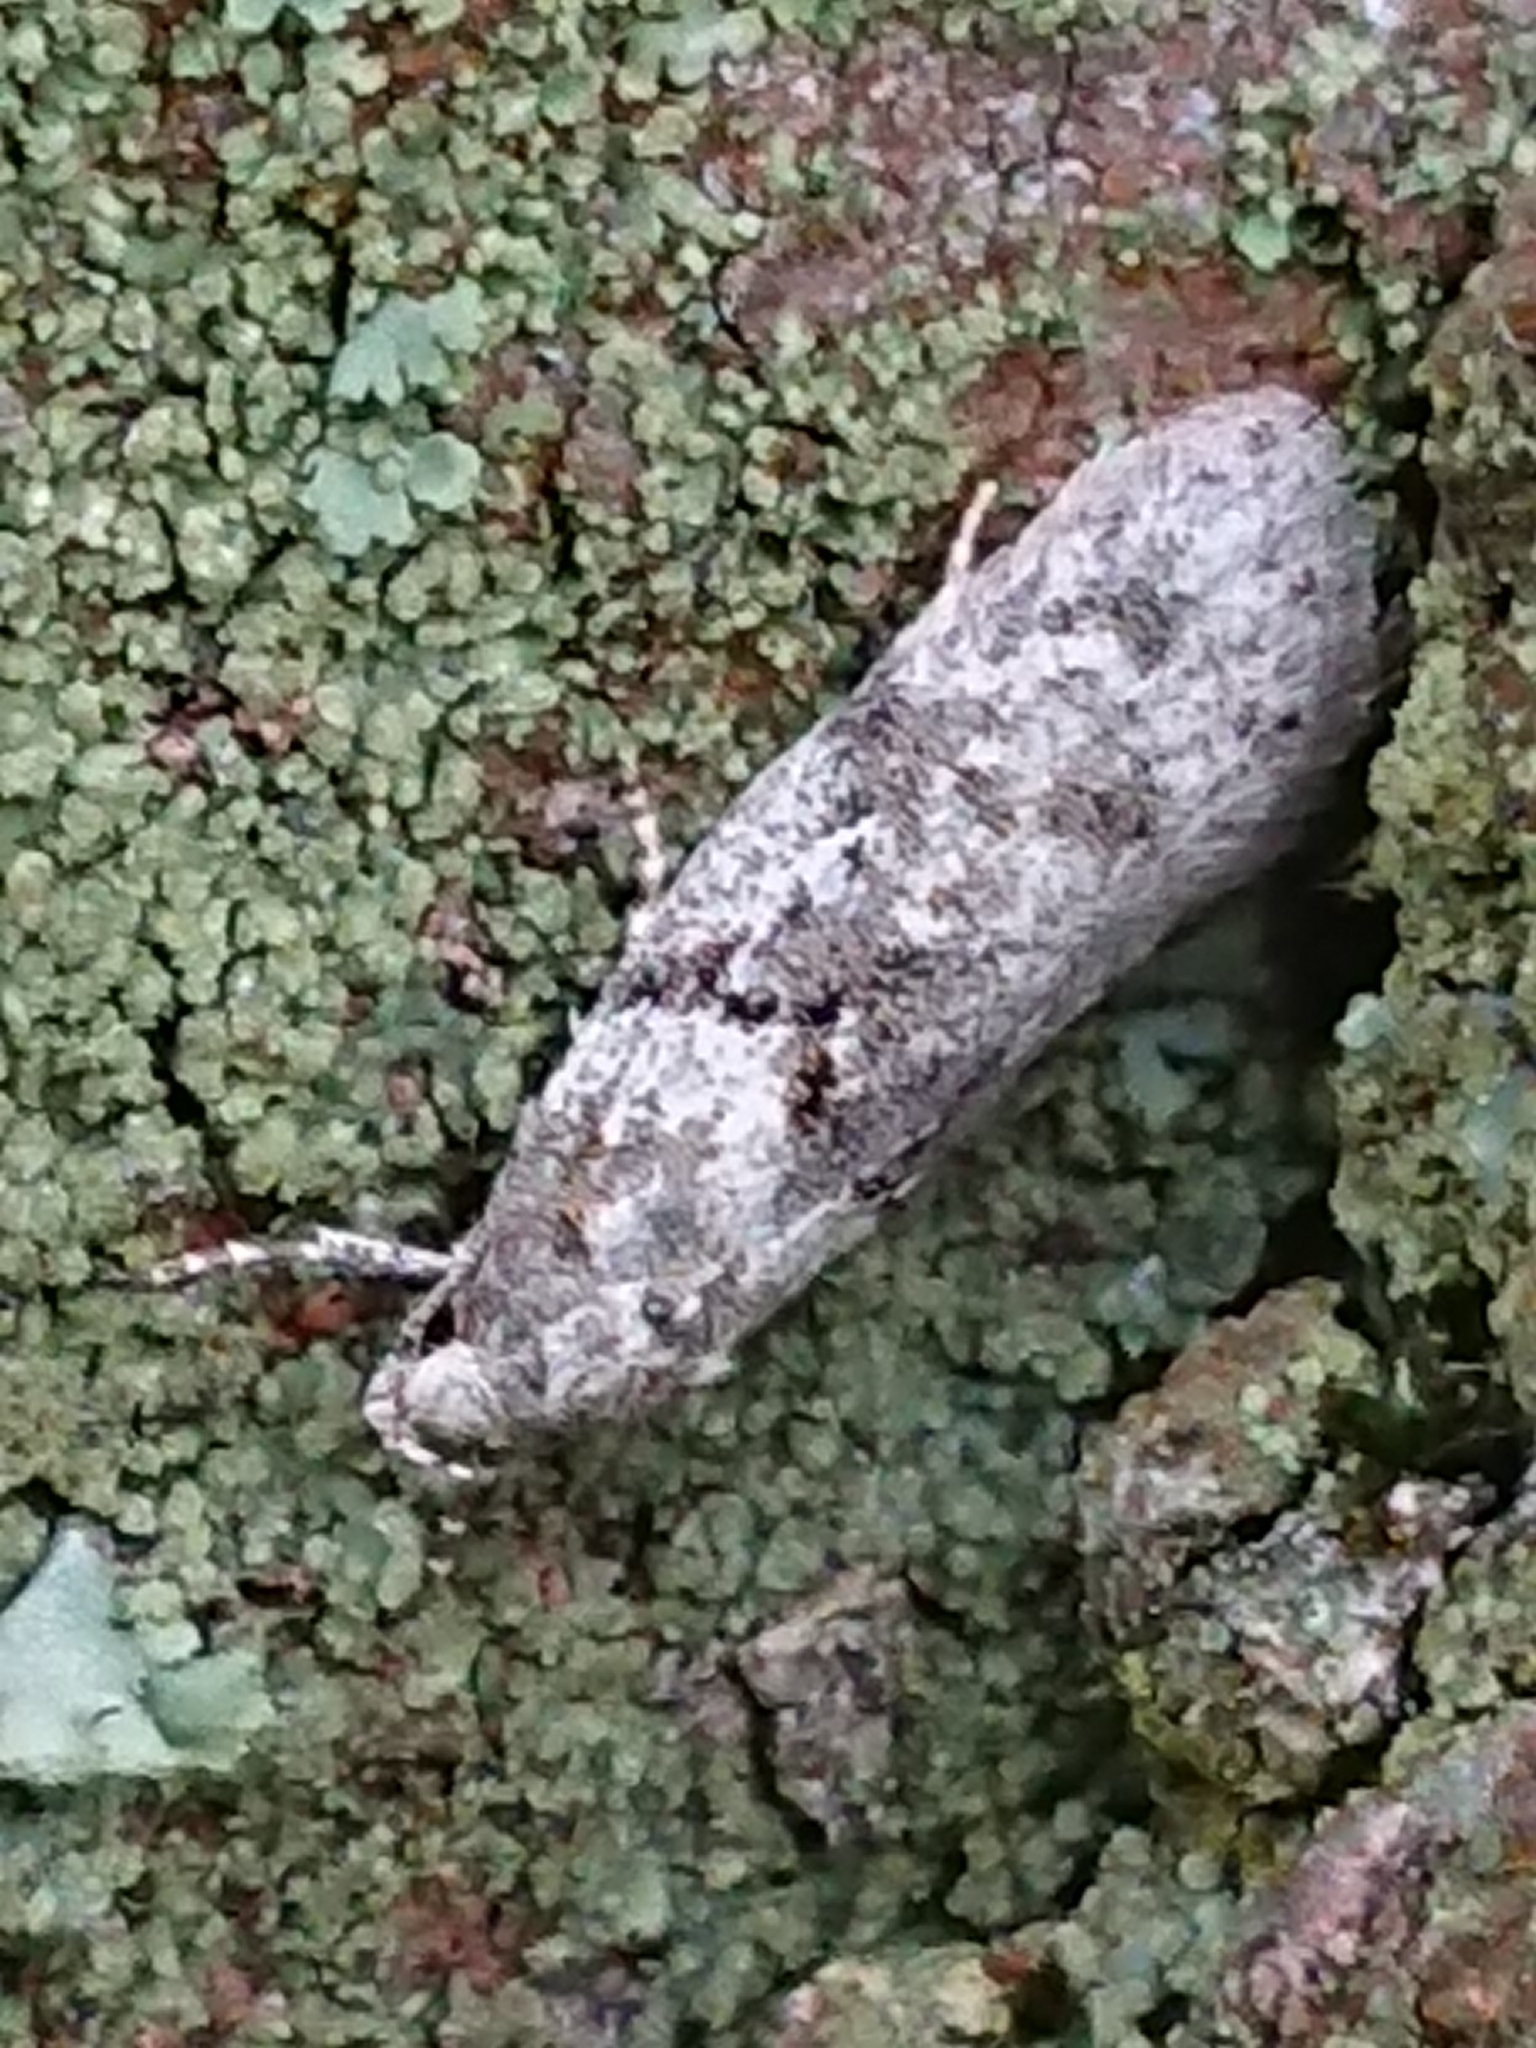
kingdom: Animalia
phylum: Arthropoda
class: Insecta
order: Lepidoptera
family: Oecophoridae
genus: Izatha
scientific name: Izatha convulsella
